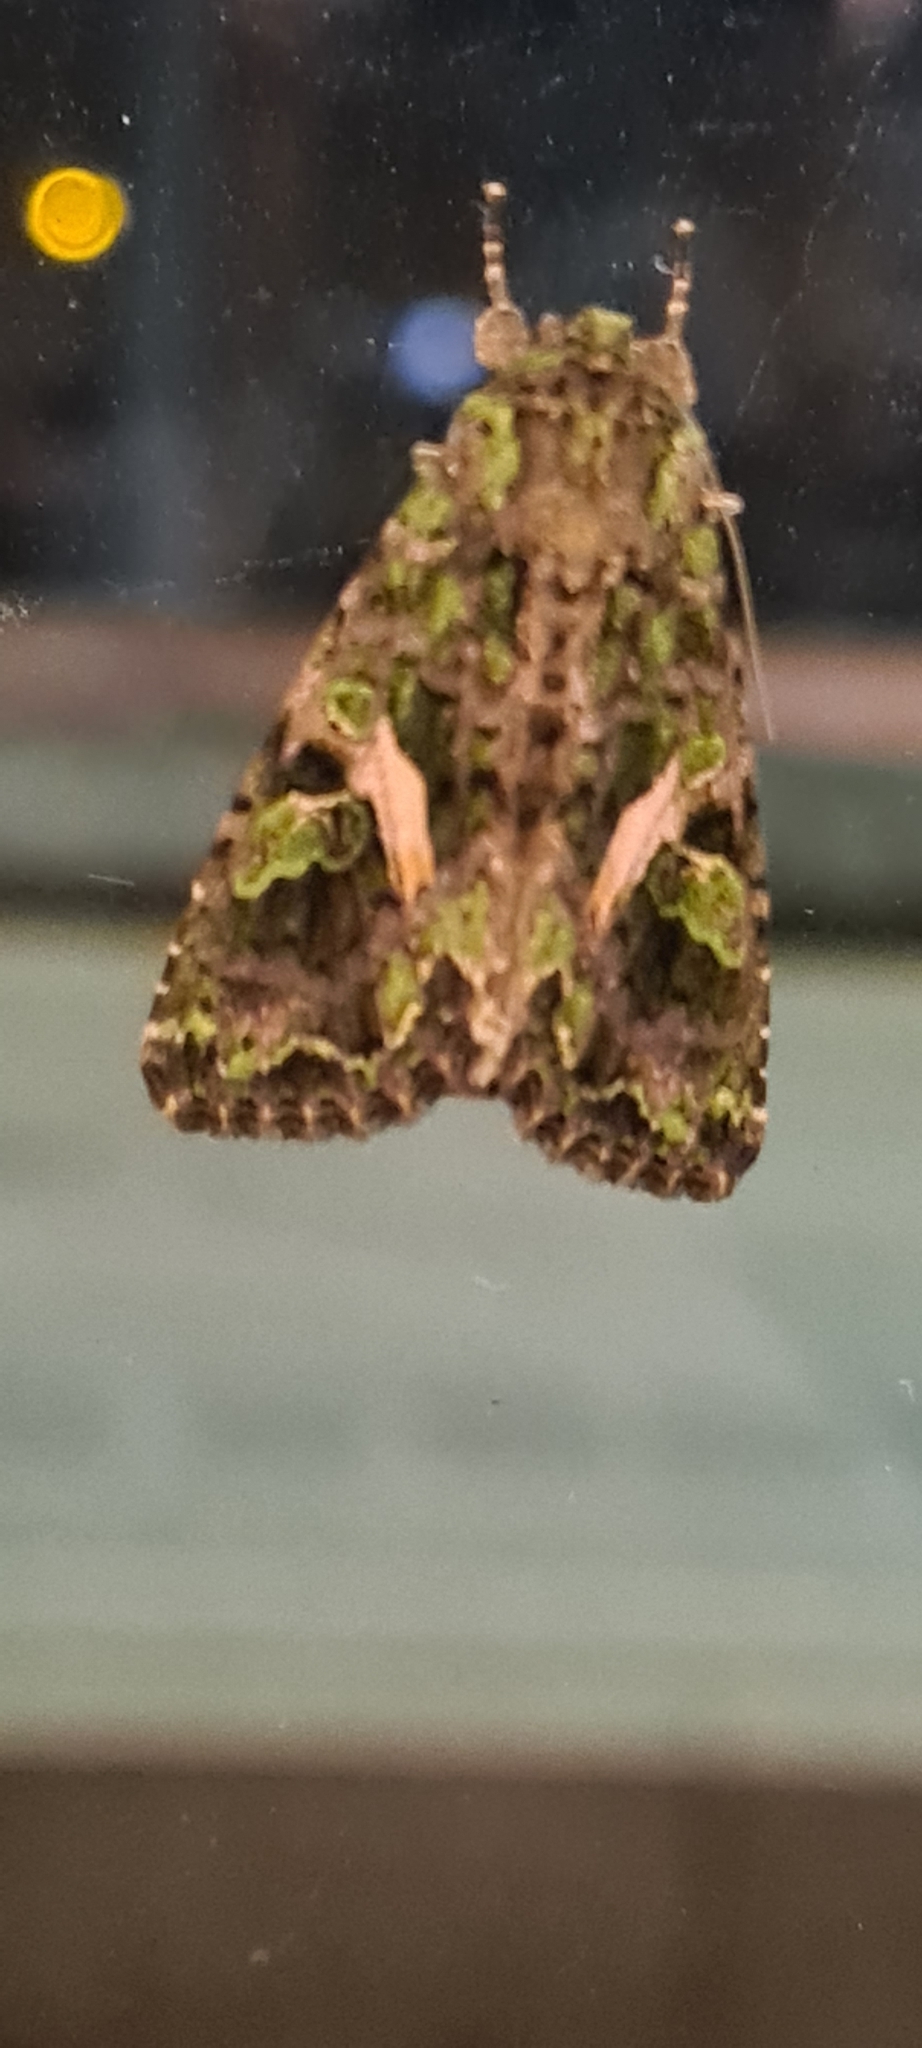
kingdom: Animalia
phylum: Arthropoda
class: Insecta
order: Lepidoptera
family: Noctuidae
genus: Trachea
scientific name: Trachea atriplicis
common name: Orache moth
